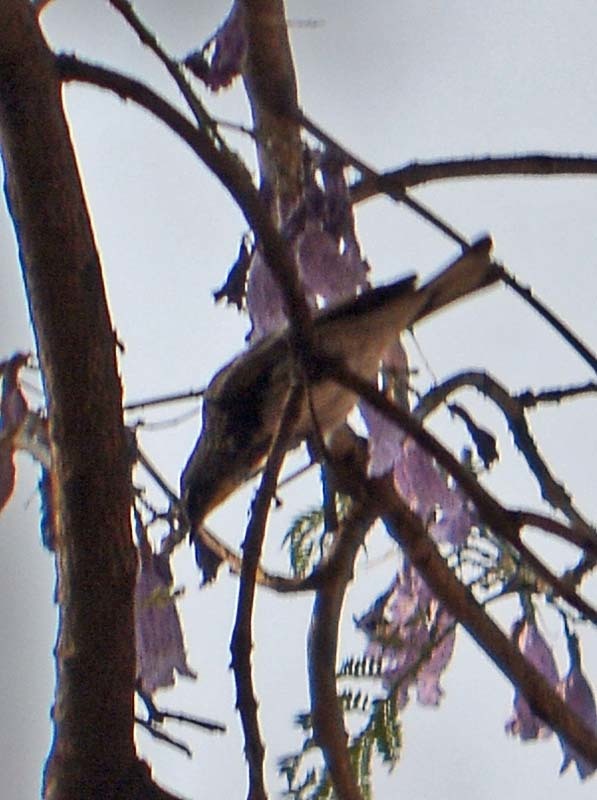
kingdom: Animalia
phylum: Chordata
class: Aves
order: Passeriformes
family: Parulidae
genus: Setophaga
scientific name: Setophaga coronata
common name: Myrtle warbler
